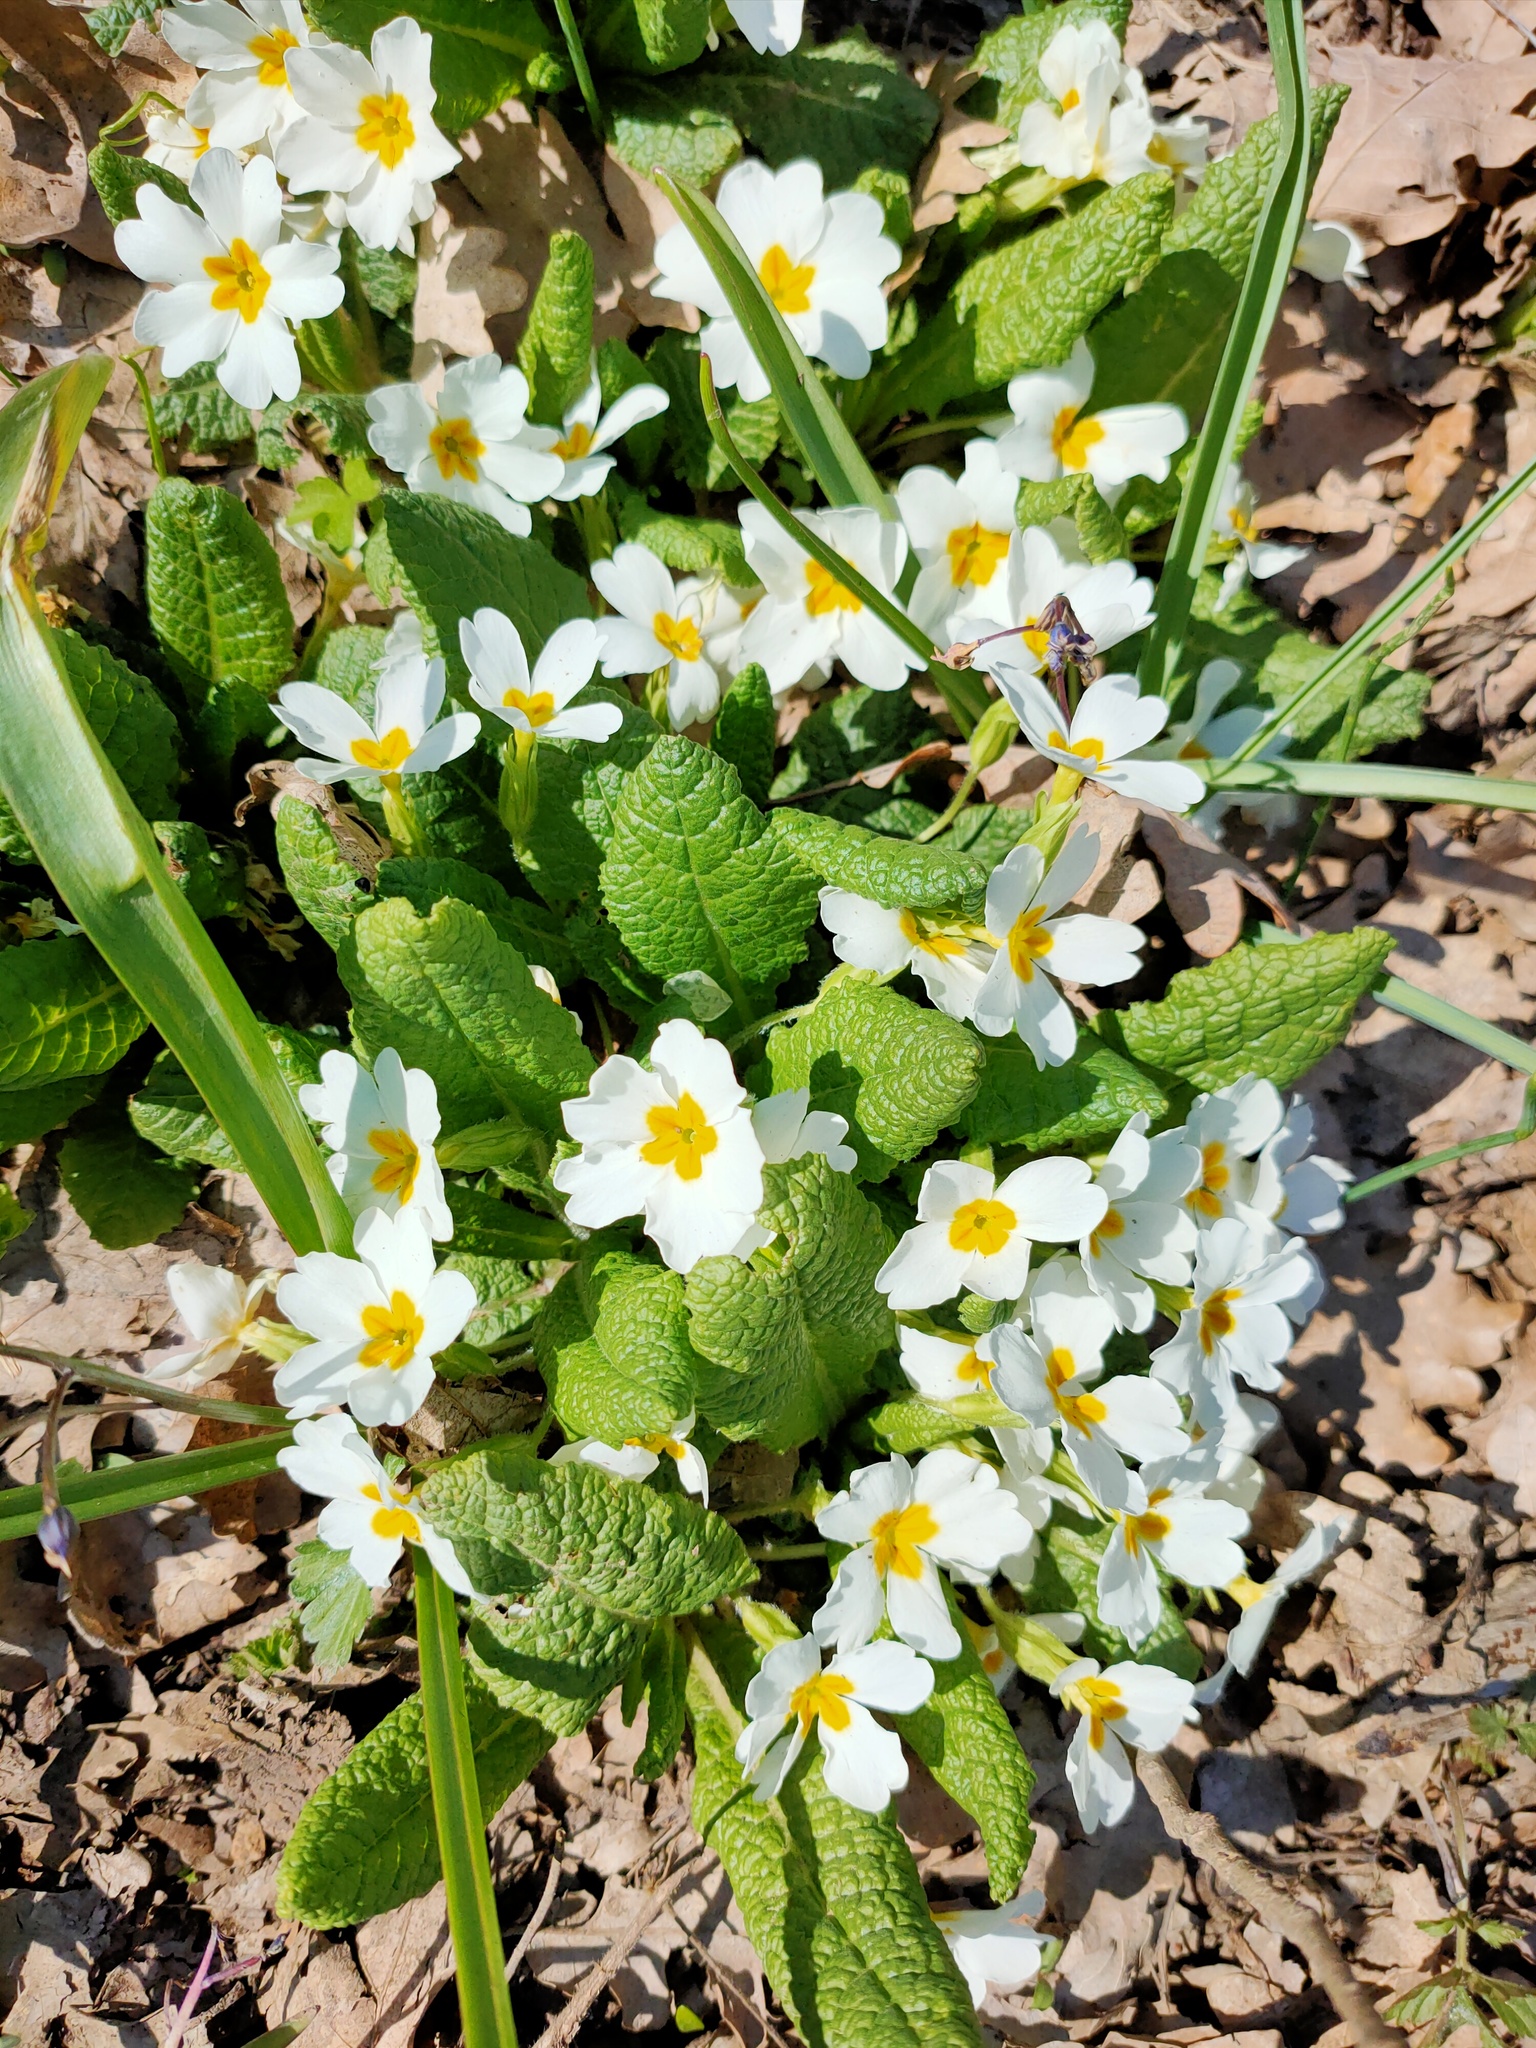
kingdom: Plantae
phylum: Tracheophyta
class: Magnoliopsida
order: Ericales
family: Primulaceae
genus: Primula
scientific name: Primula vulgaris
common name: Primrose
